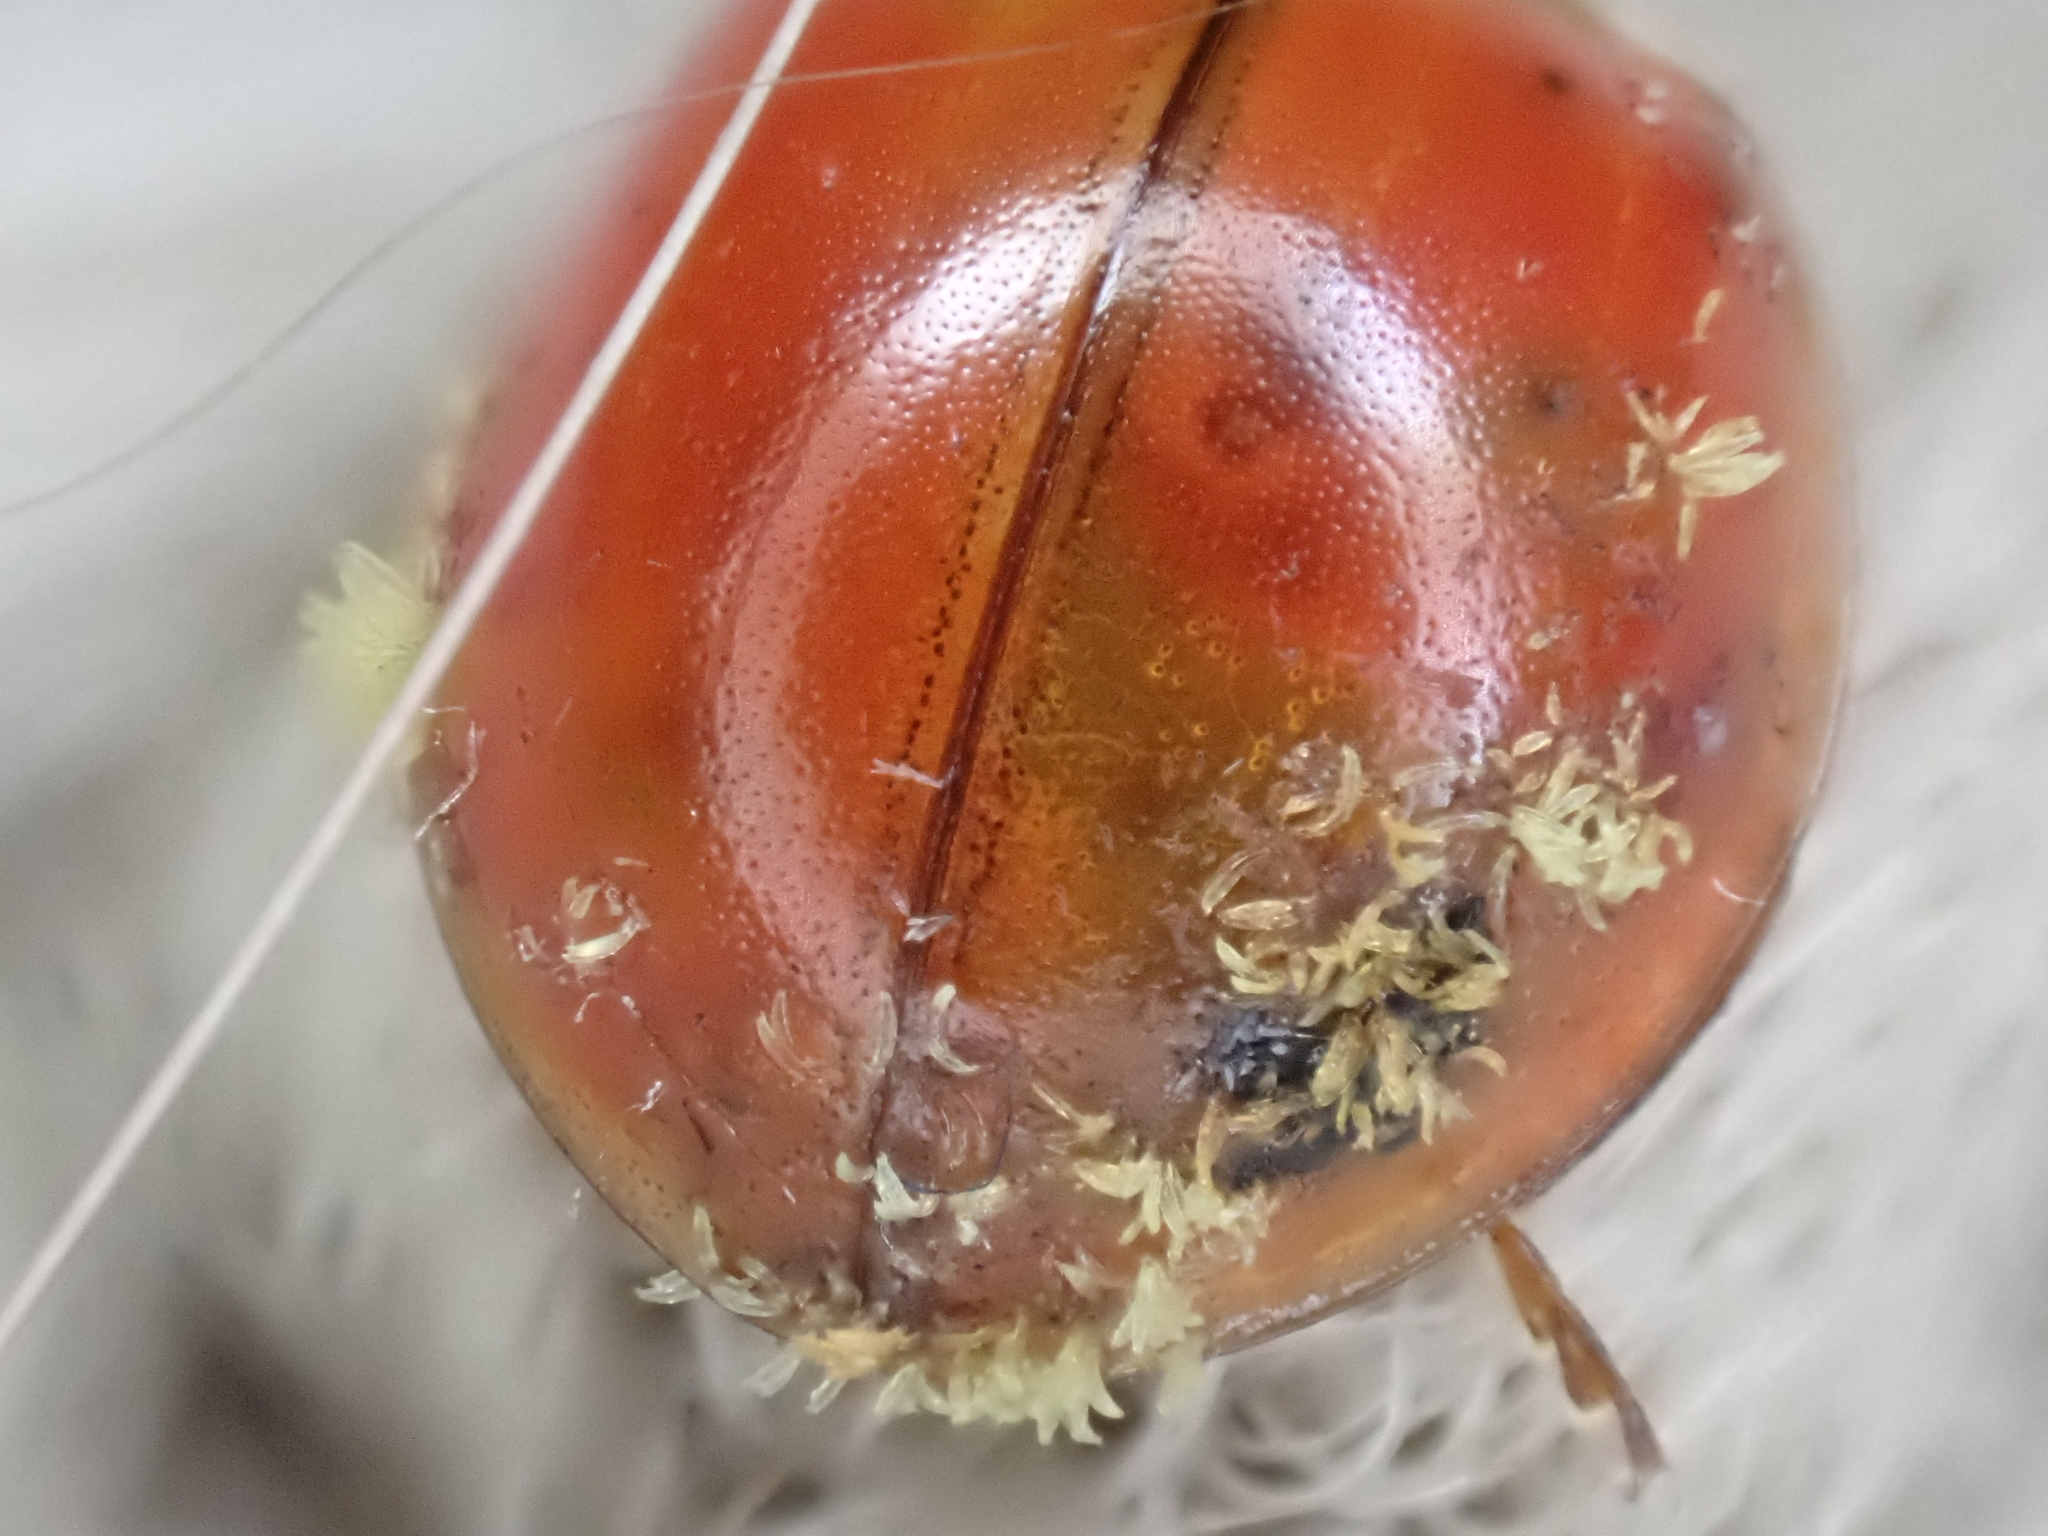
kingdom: Fungi
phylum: Ascomycota
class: Laboulbeniomycetes
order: Laboulbeniales
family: Laboulbeniaceae
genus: Hesperomyces
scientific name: Hesperomyces harmoniae
